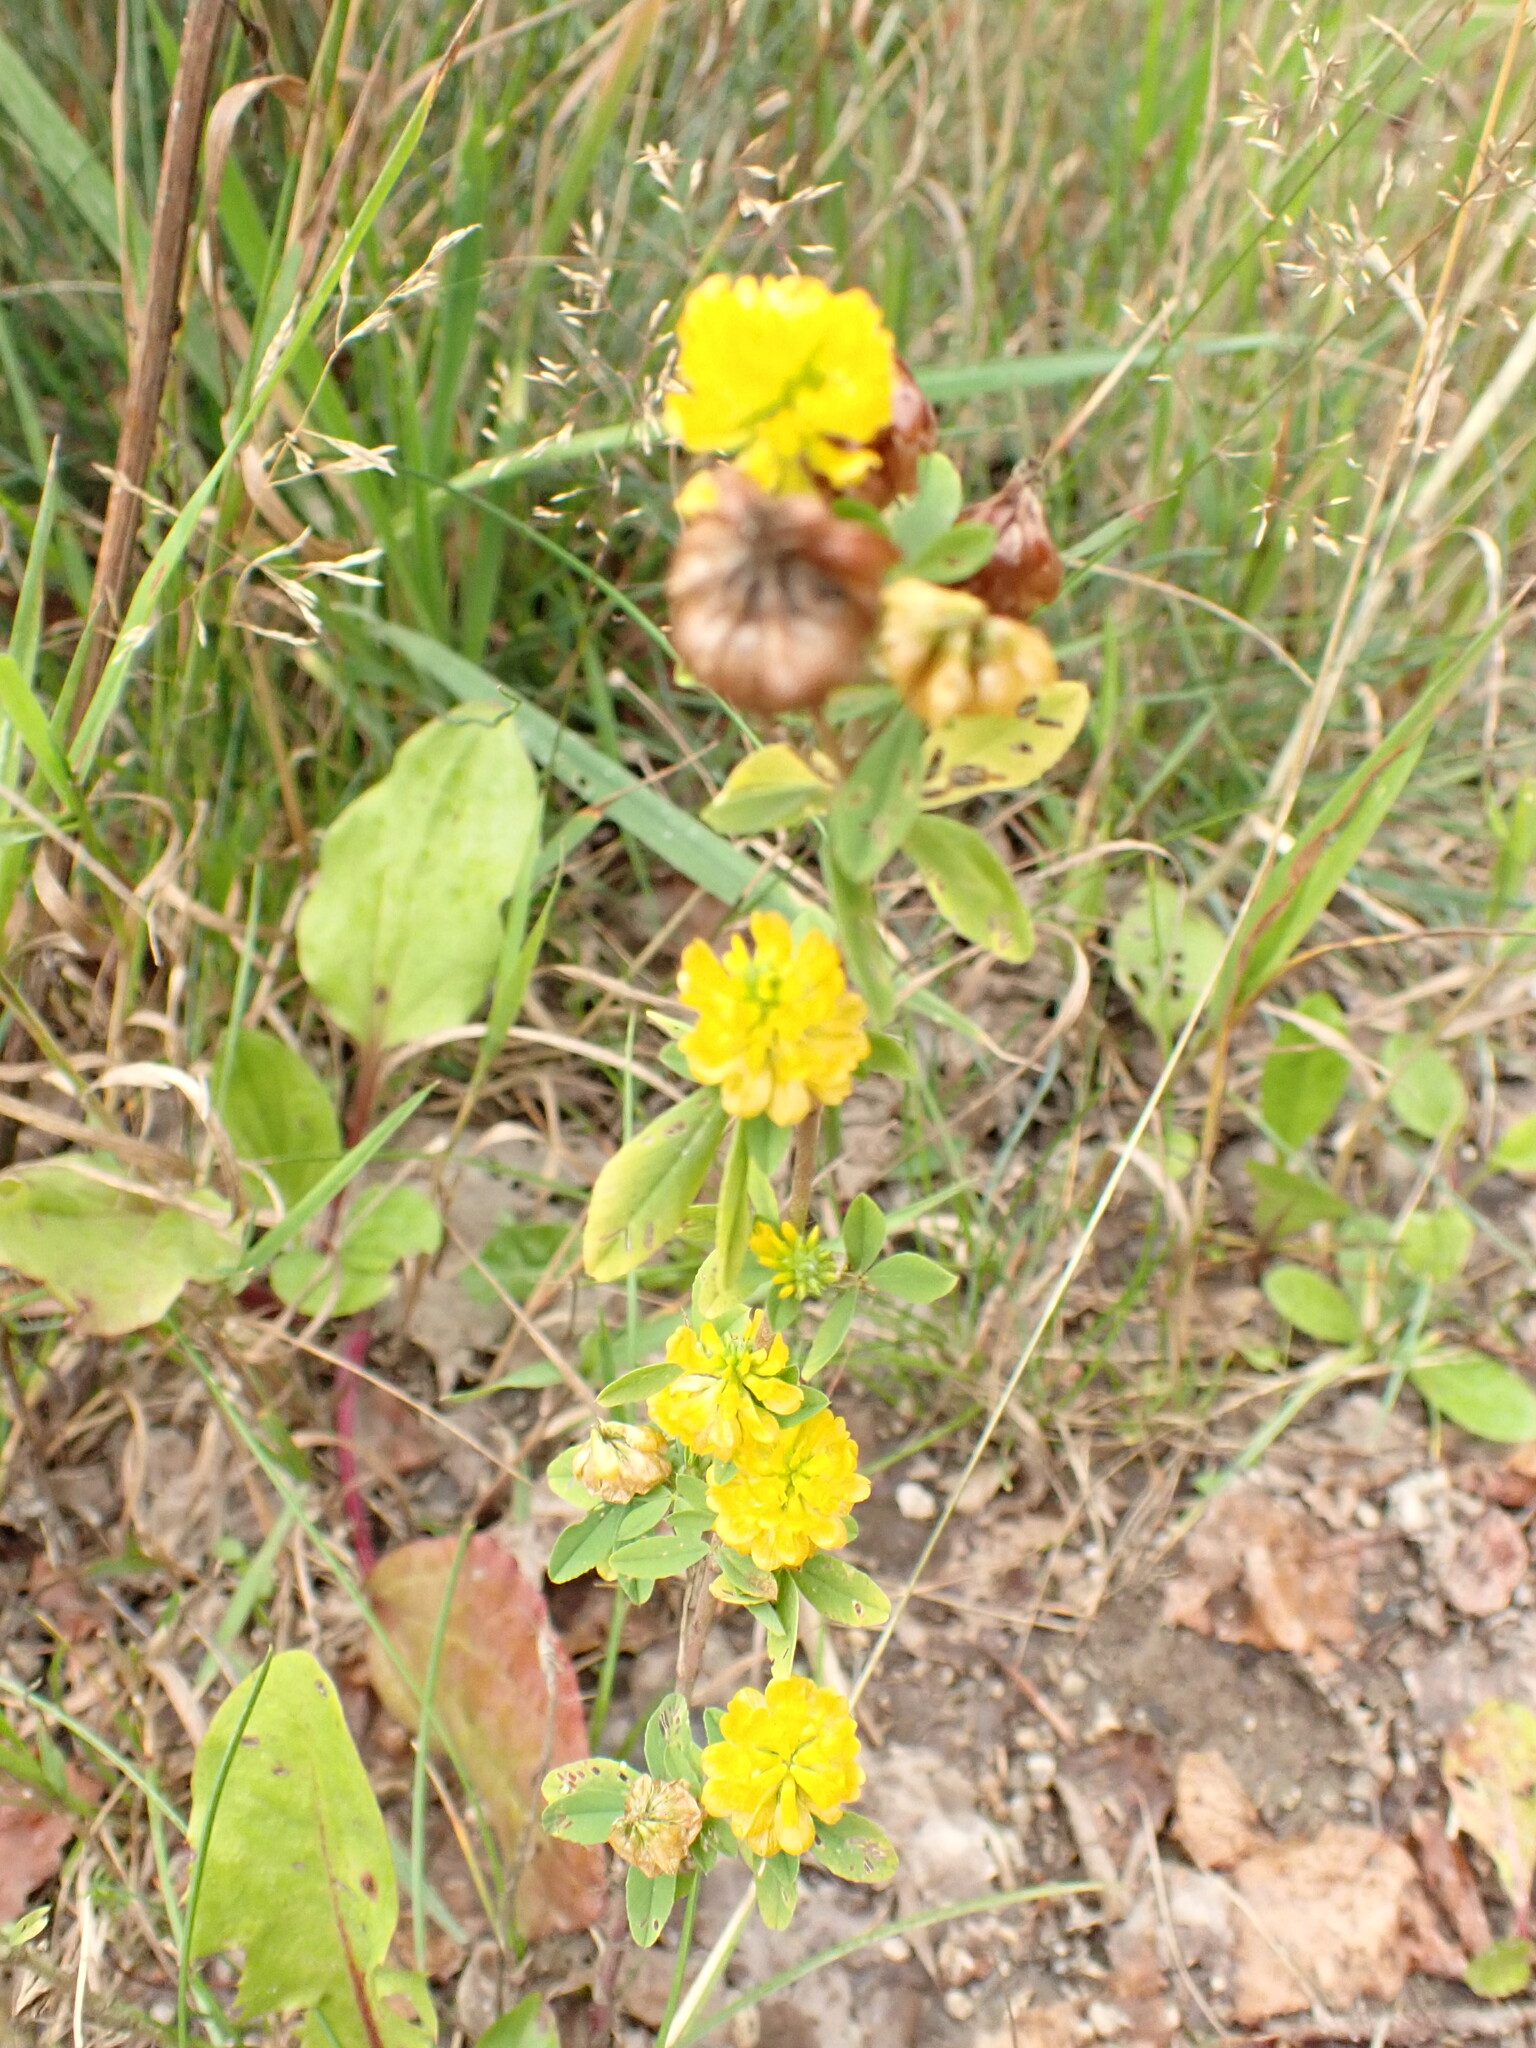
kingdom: Plantae
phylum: Tracheophyta
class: Magnoliopsida
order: Fabales
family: Fabaceae
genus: Trifolium
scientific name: Trifolium aureum
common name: Golden clover
